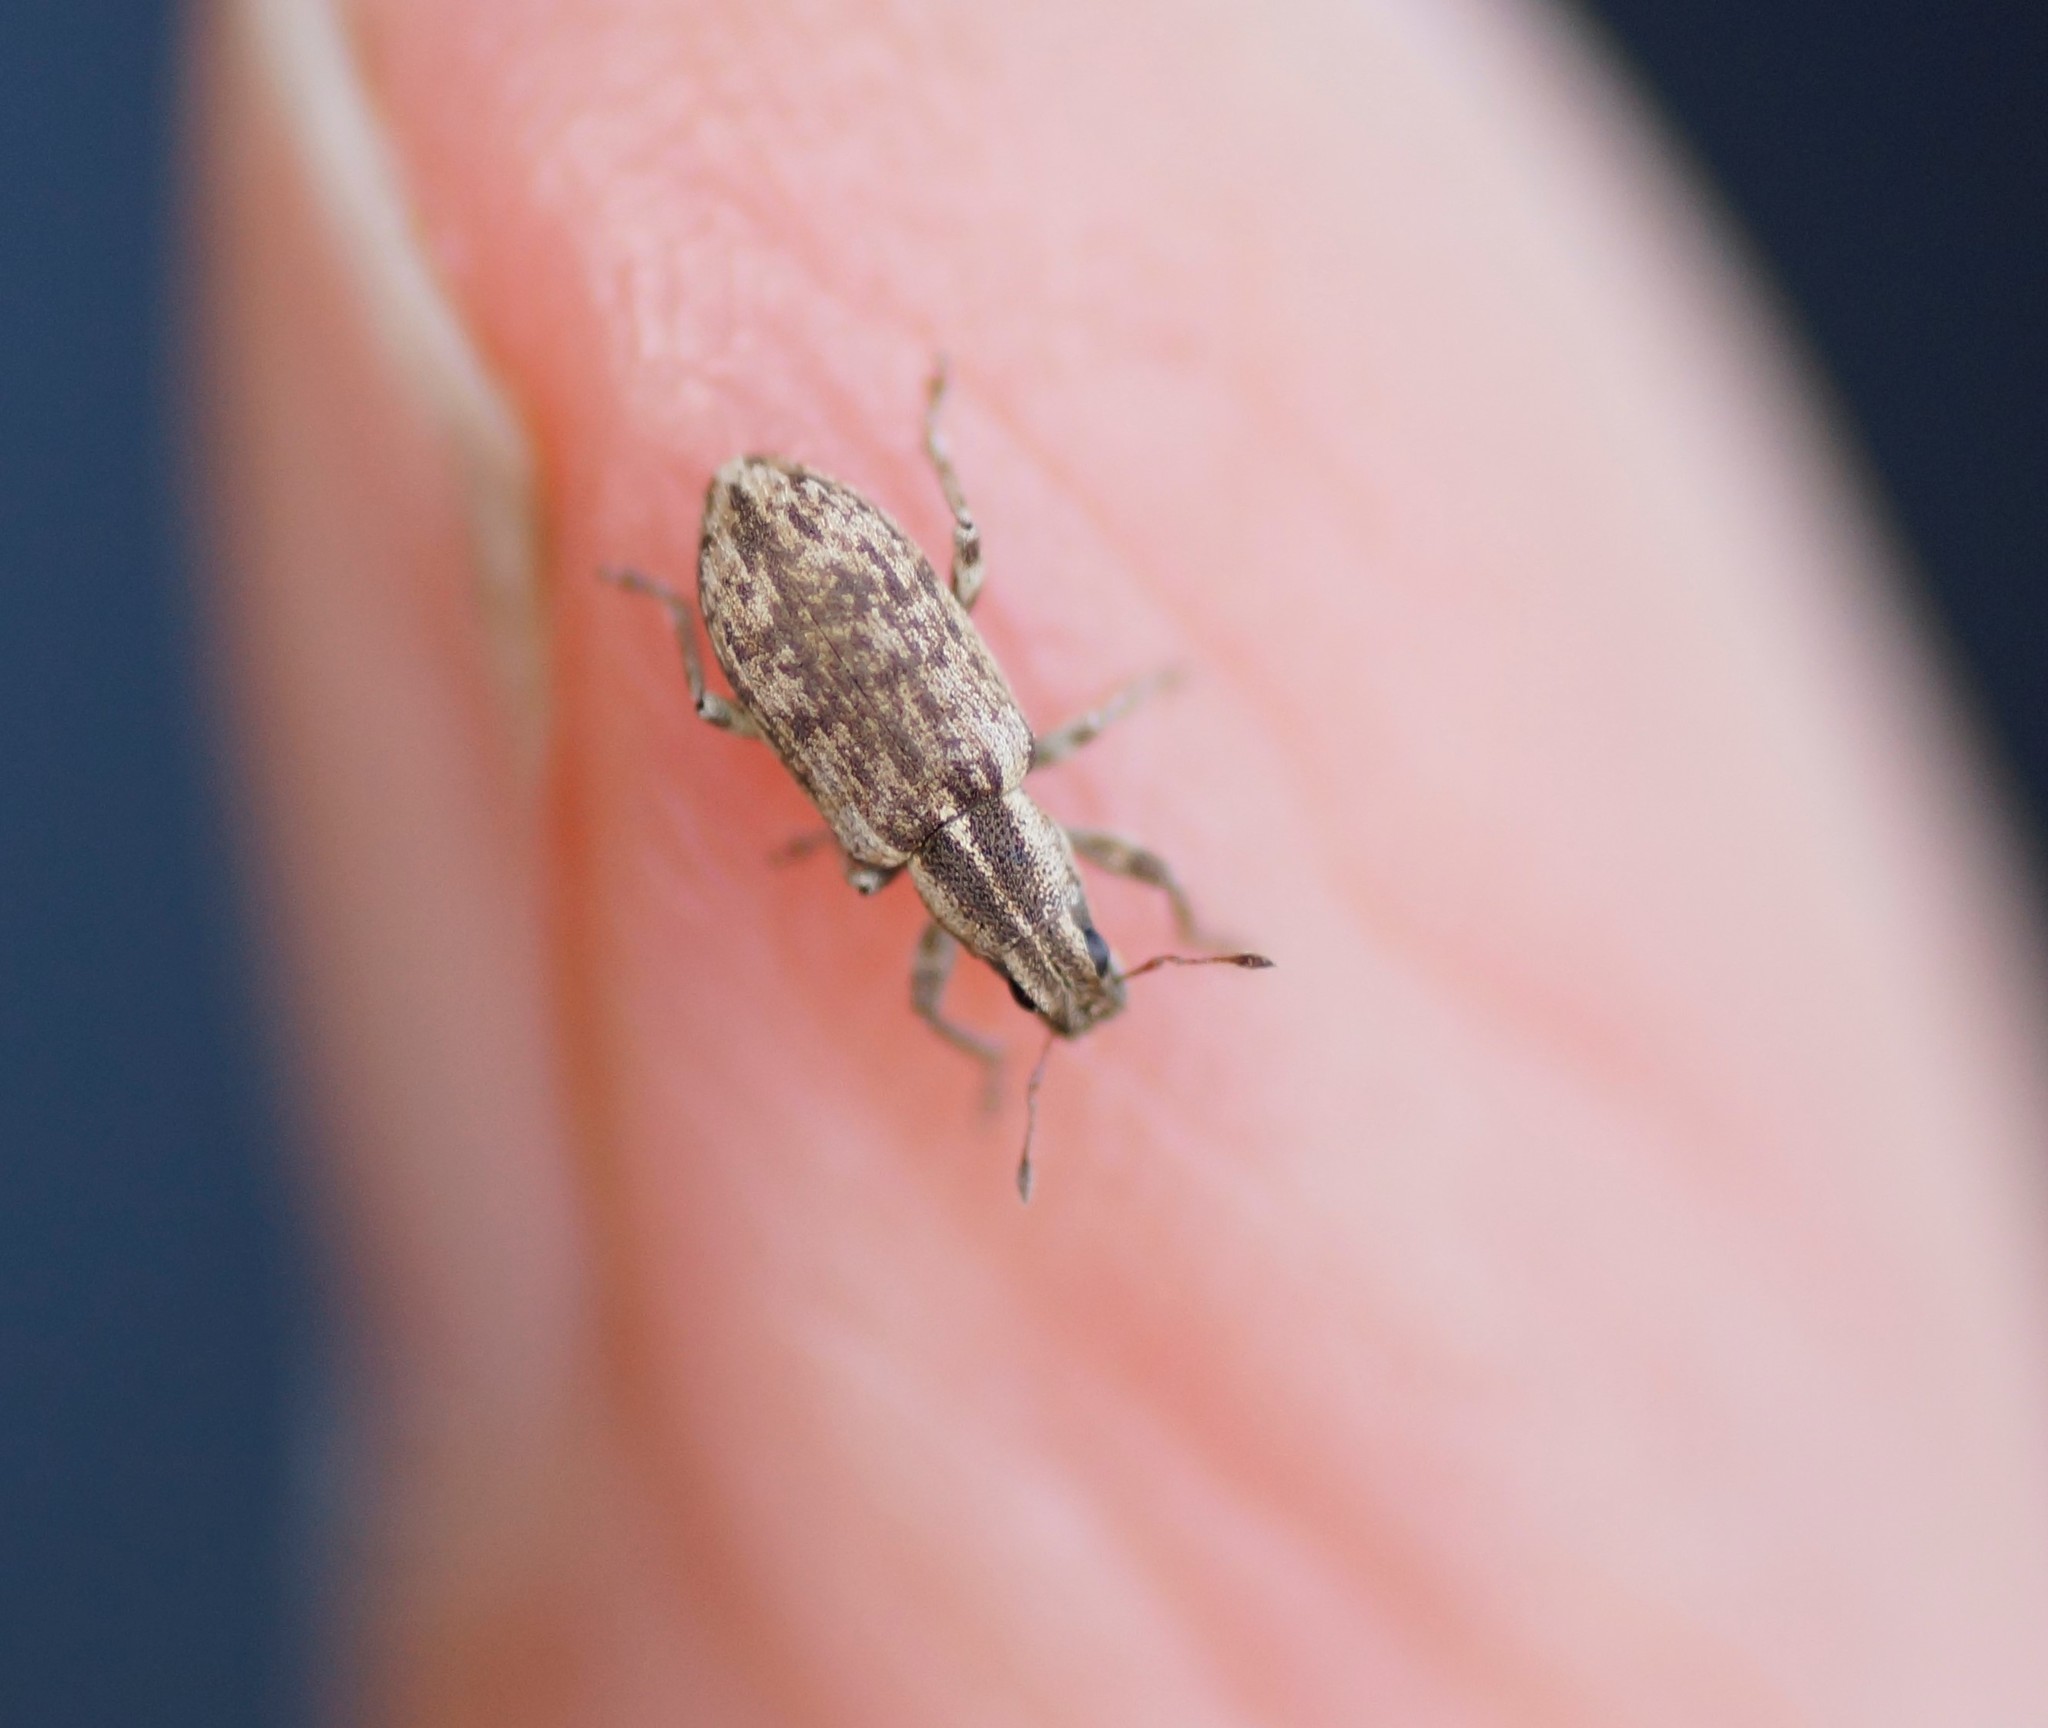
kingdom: Animalia
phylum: Arthropoda
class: Insecta
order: Coleoptera
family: Curculionidae
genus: Sitona
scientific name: Sitona discoideus
